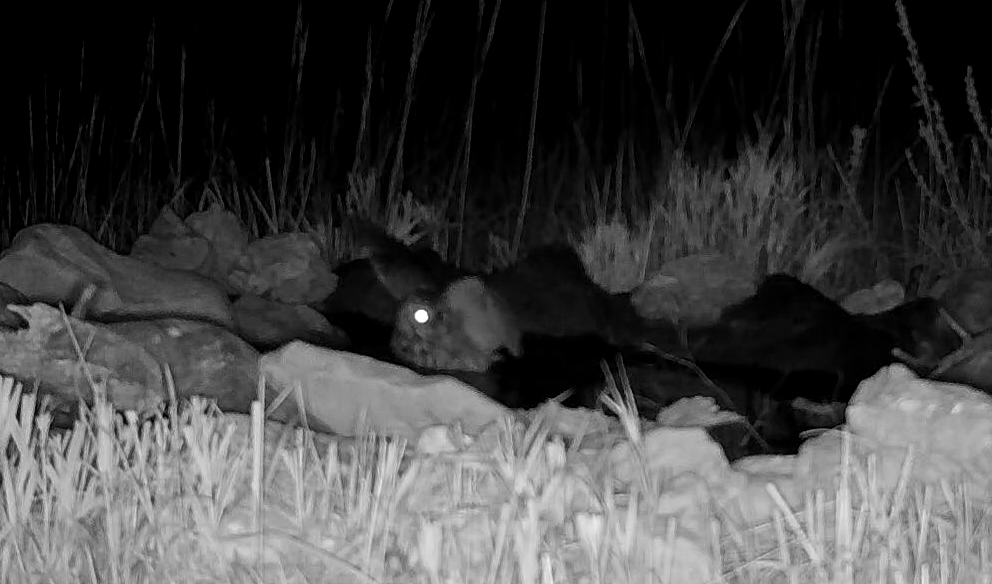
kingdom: Animalia
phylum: Chordata
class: Aves
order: Strigiformes
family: Strigidae
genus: Megascops
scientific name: Megascops asio
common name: Eastern screech-owl
